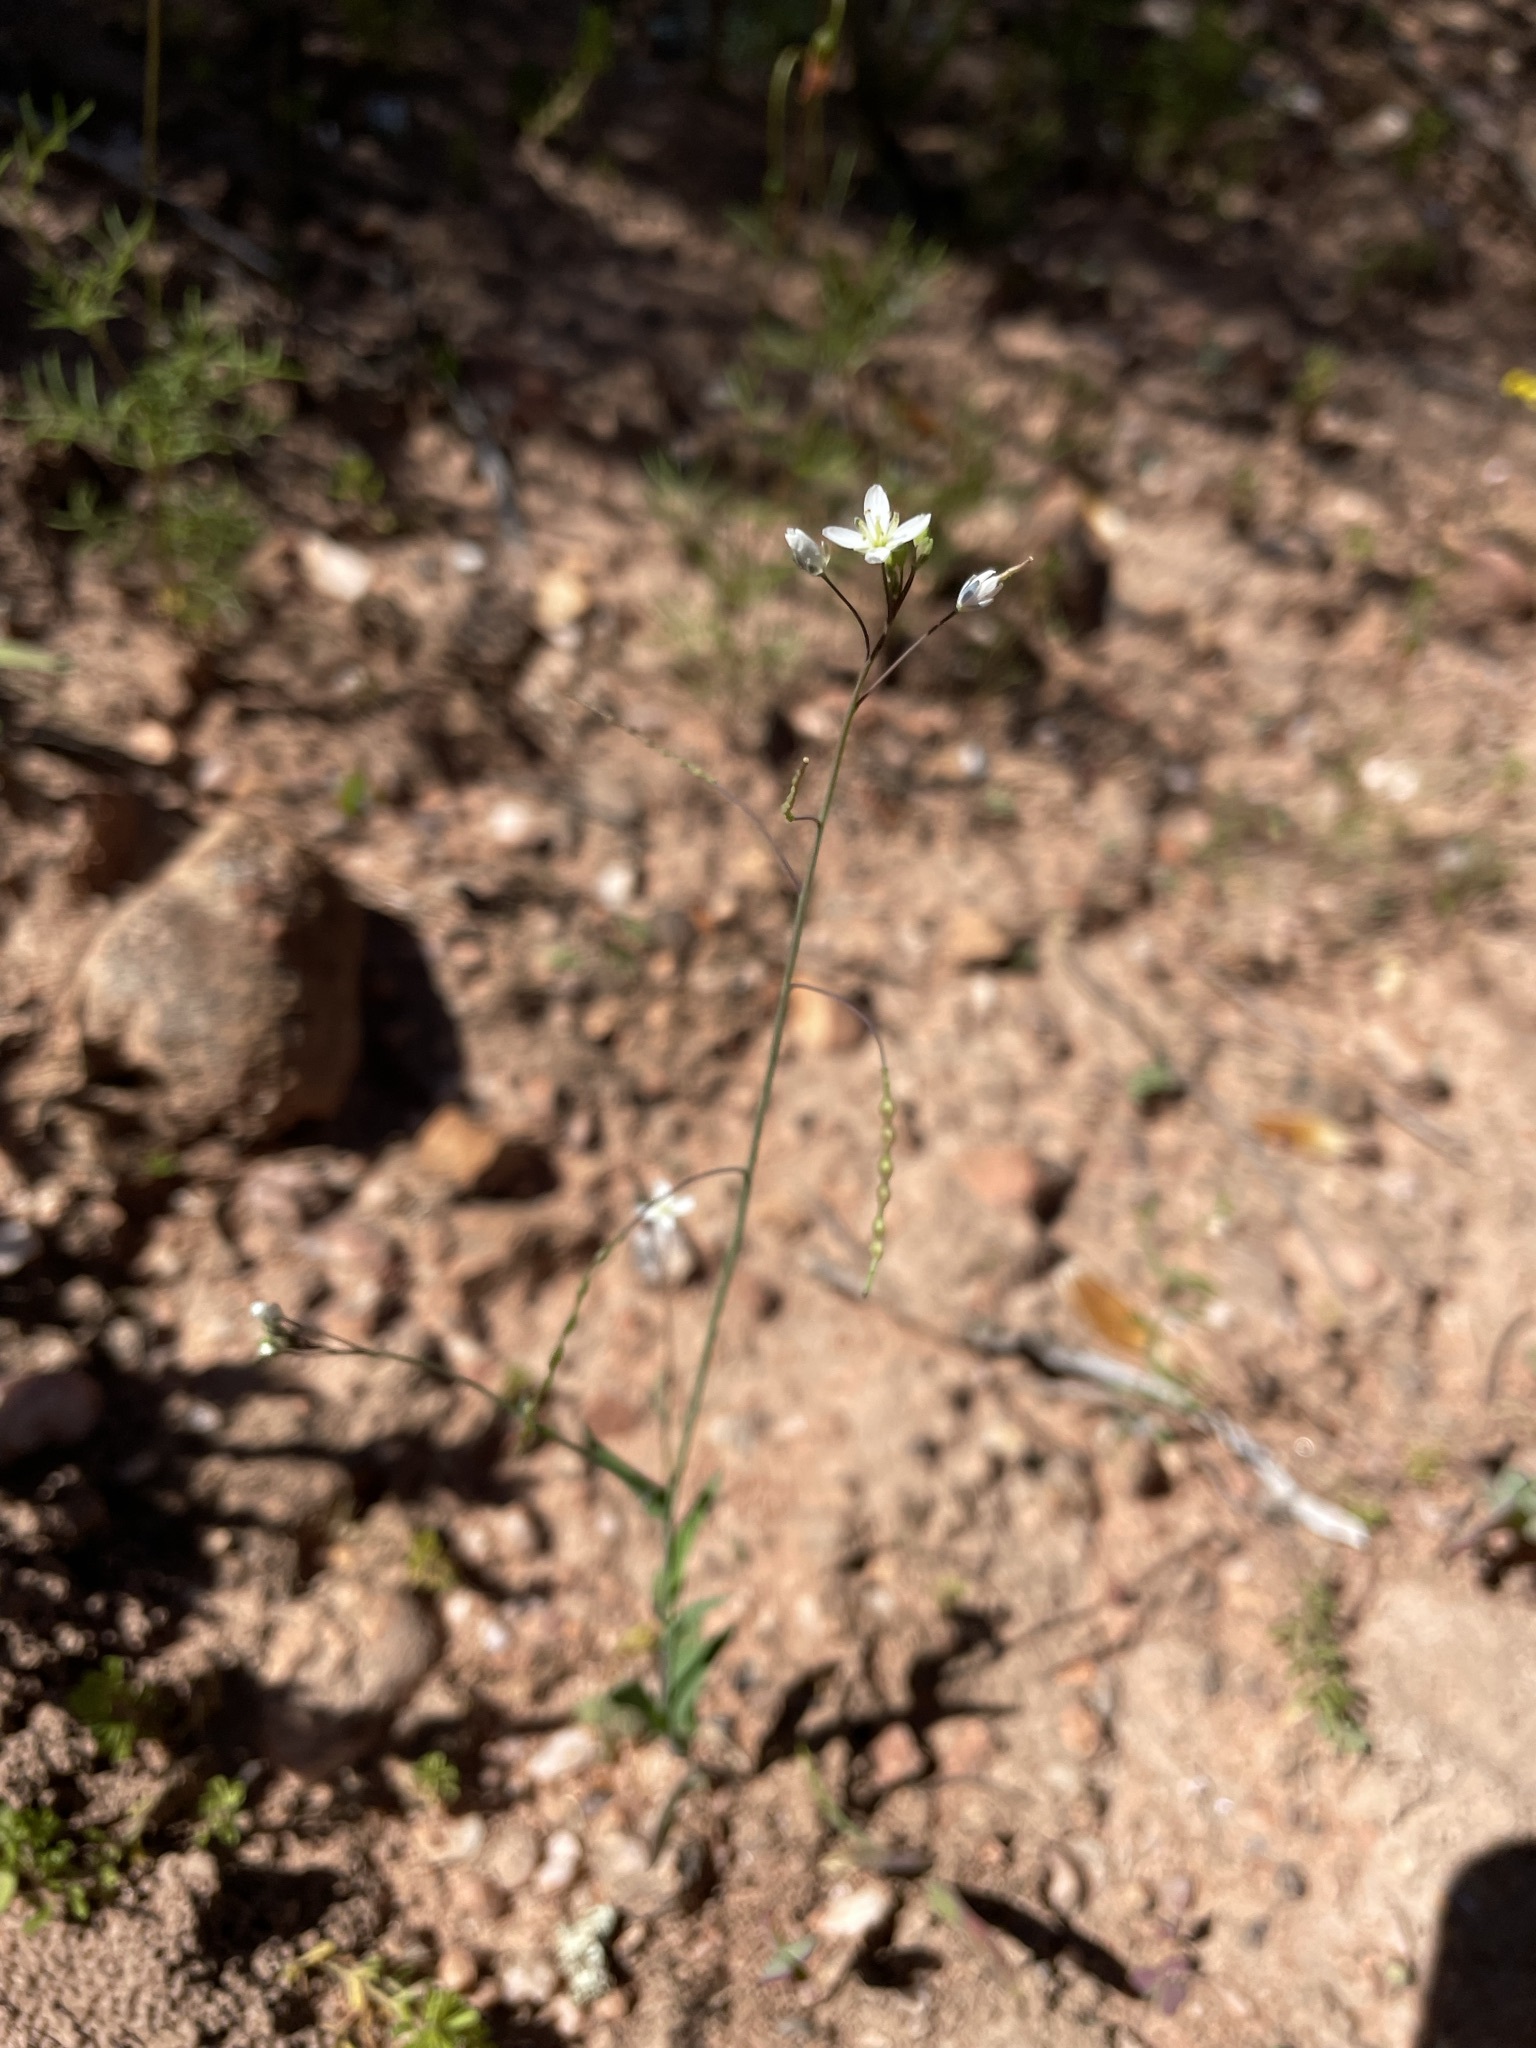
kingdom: Plantae
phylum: Tracheophyta
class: Magnoliopsida
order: Brassicales
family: Brassicaceae
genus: Heliophila
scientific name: Heliophila amplexicaulis
